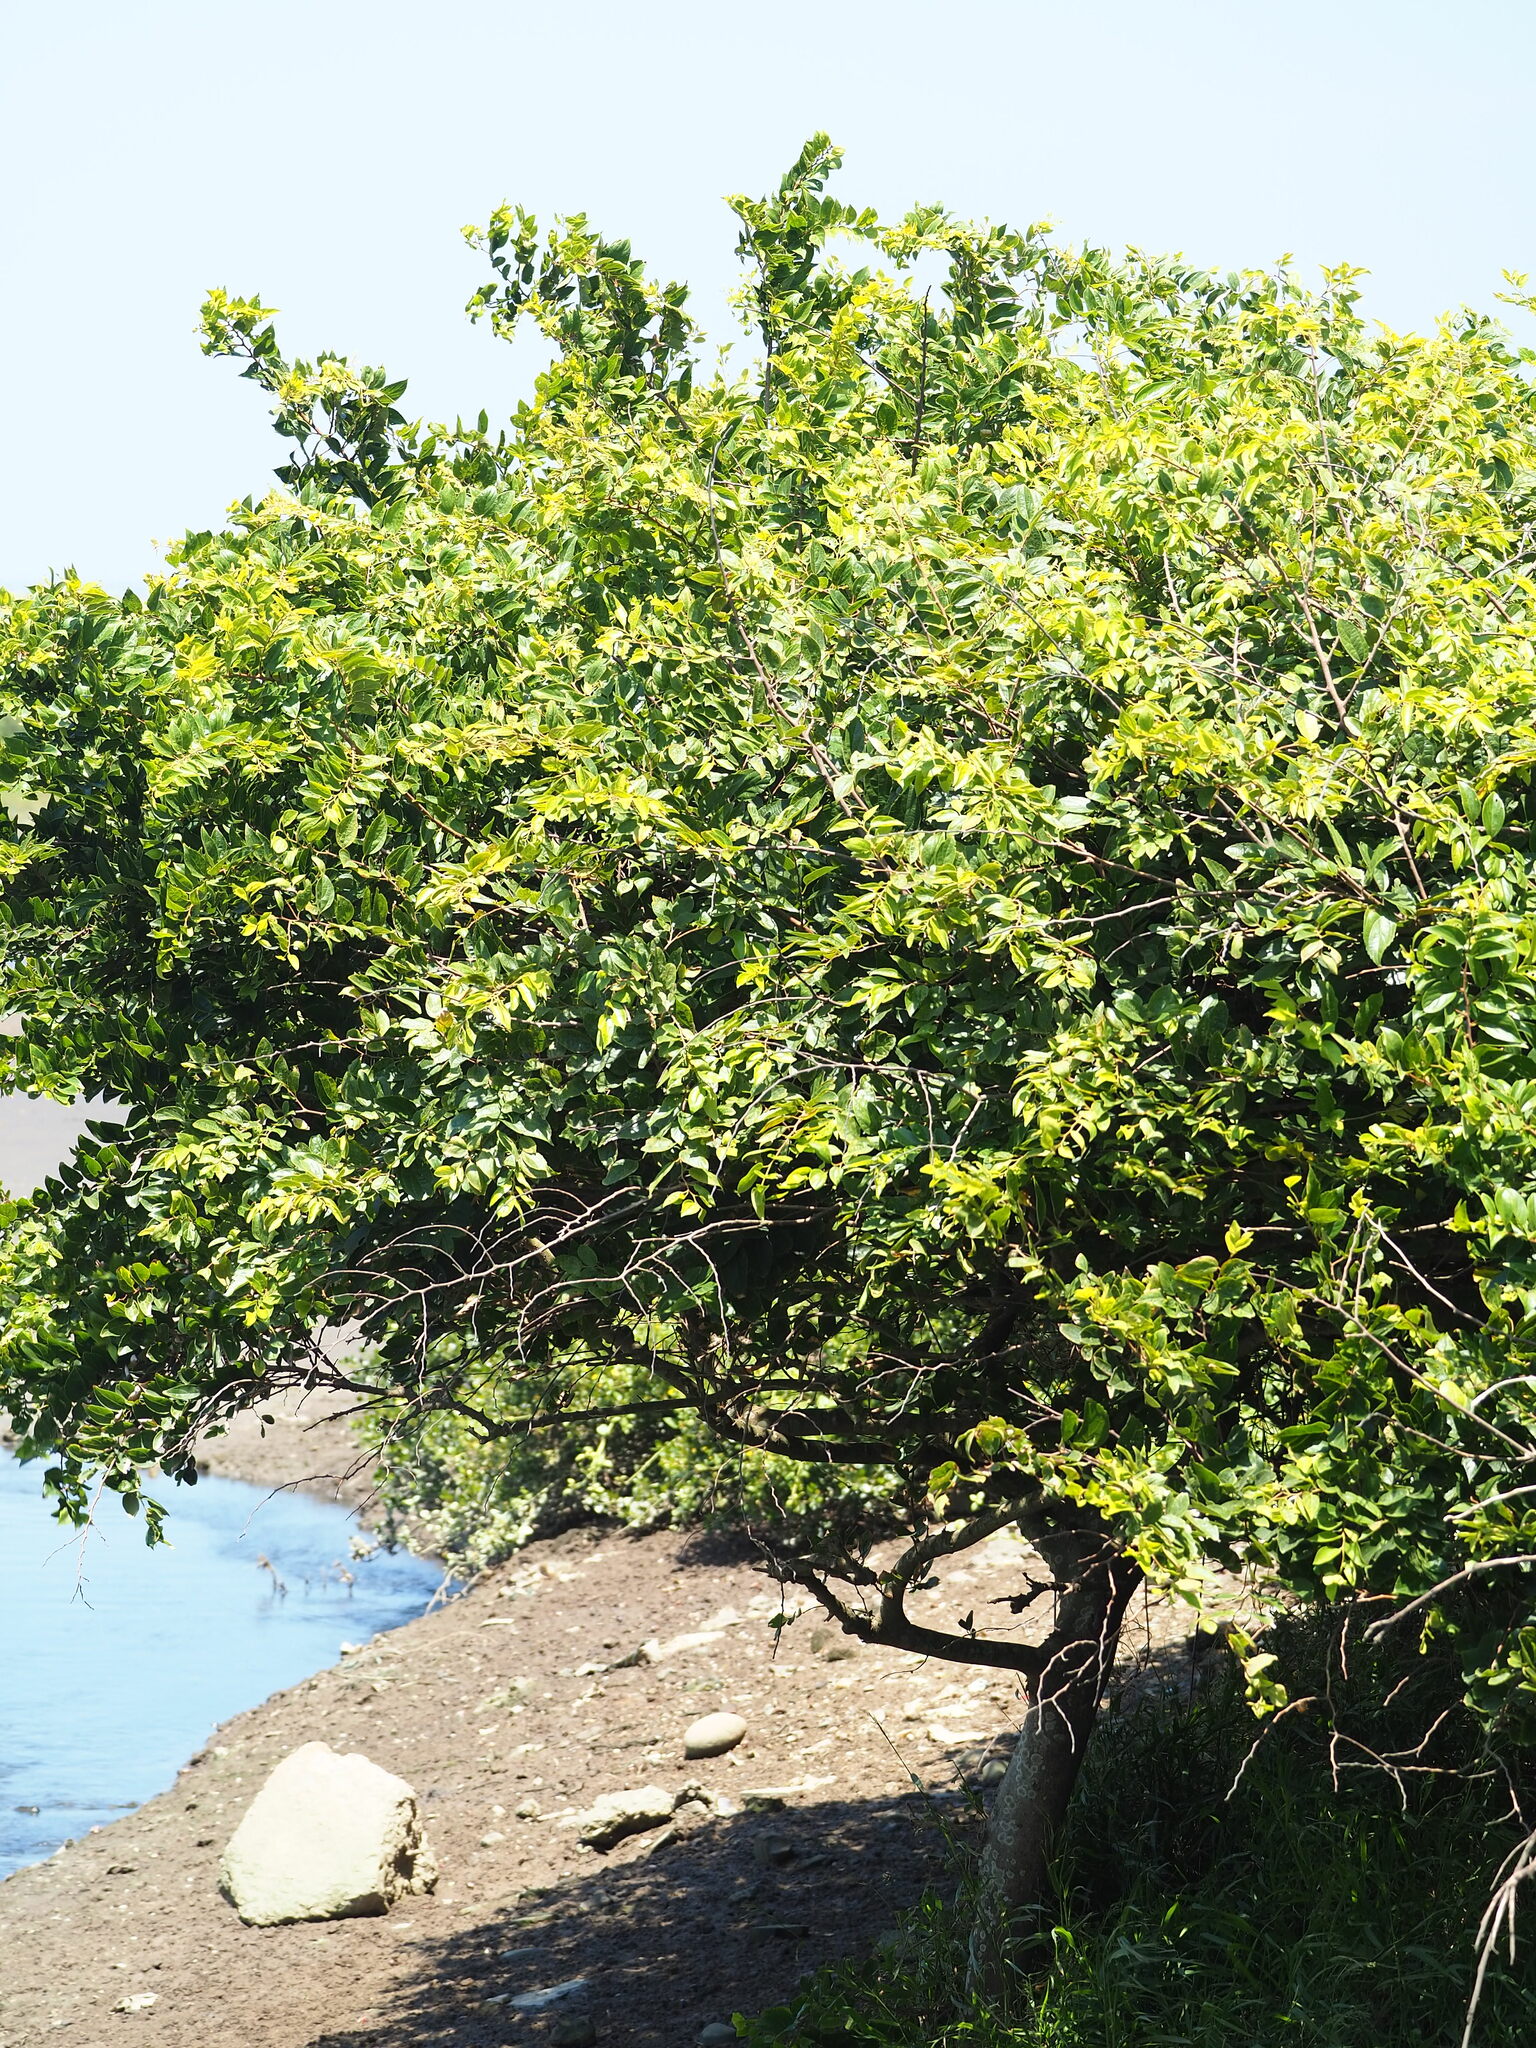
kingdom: Plantae
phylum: Tracheophyta
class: Magnoliopsida
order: Rosales
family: Cannabaceae
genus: Celtis
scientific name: Celtis sinensis
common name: Chinese hackberry
